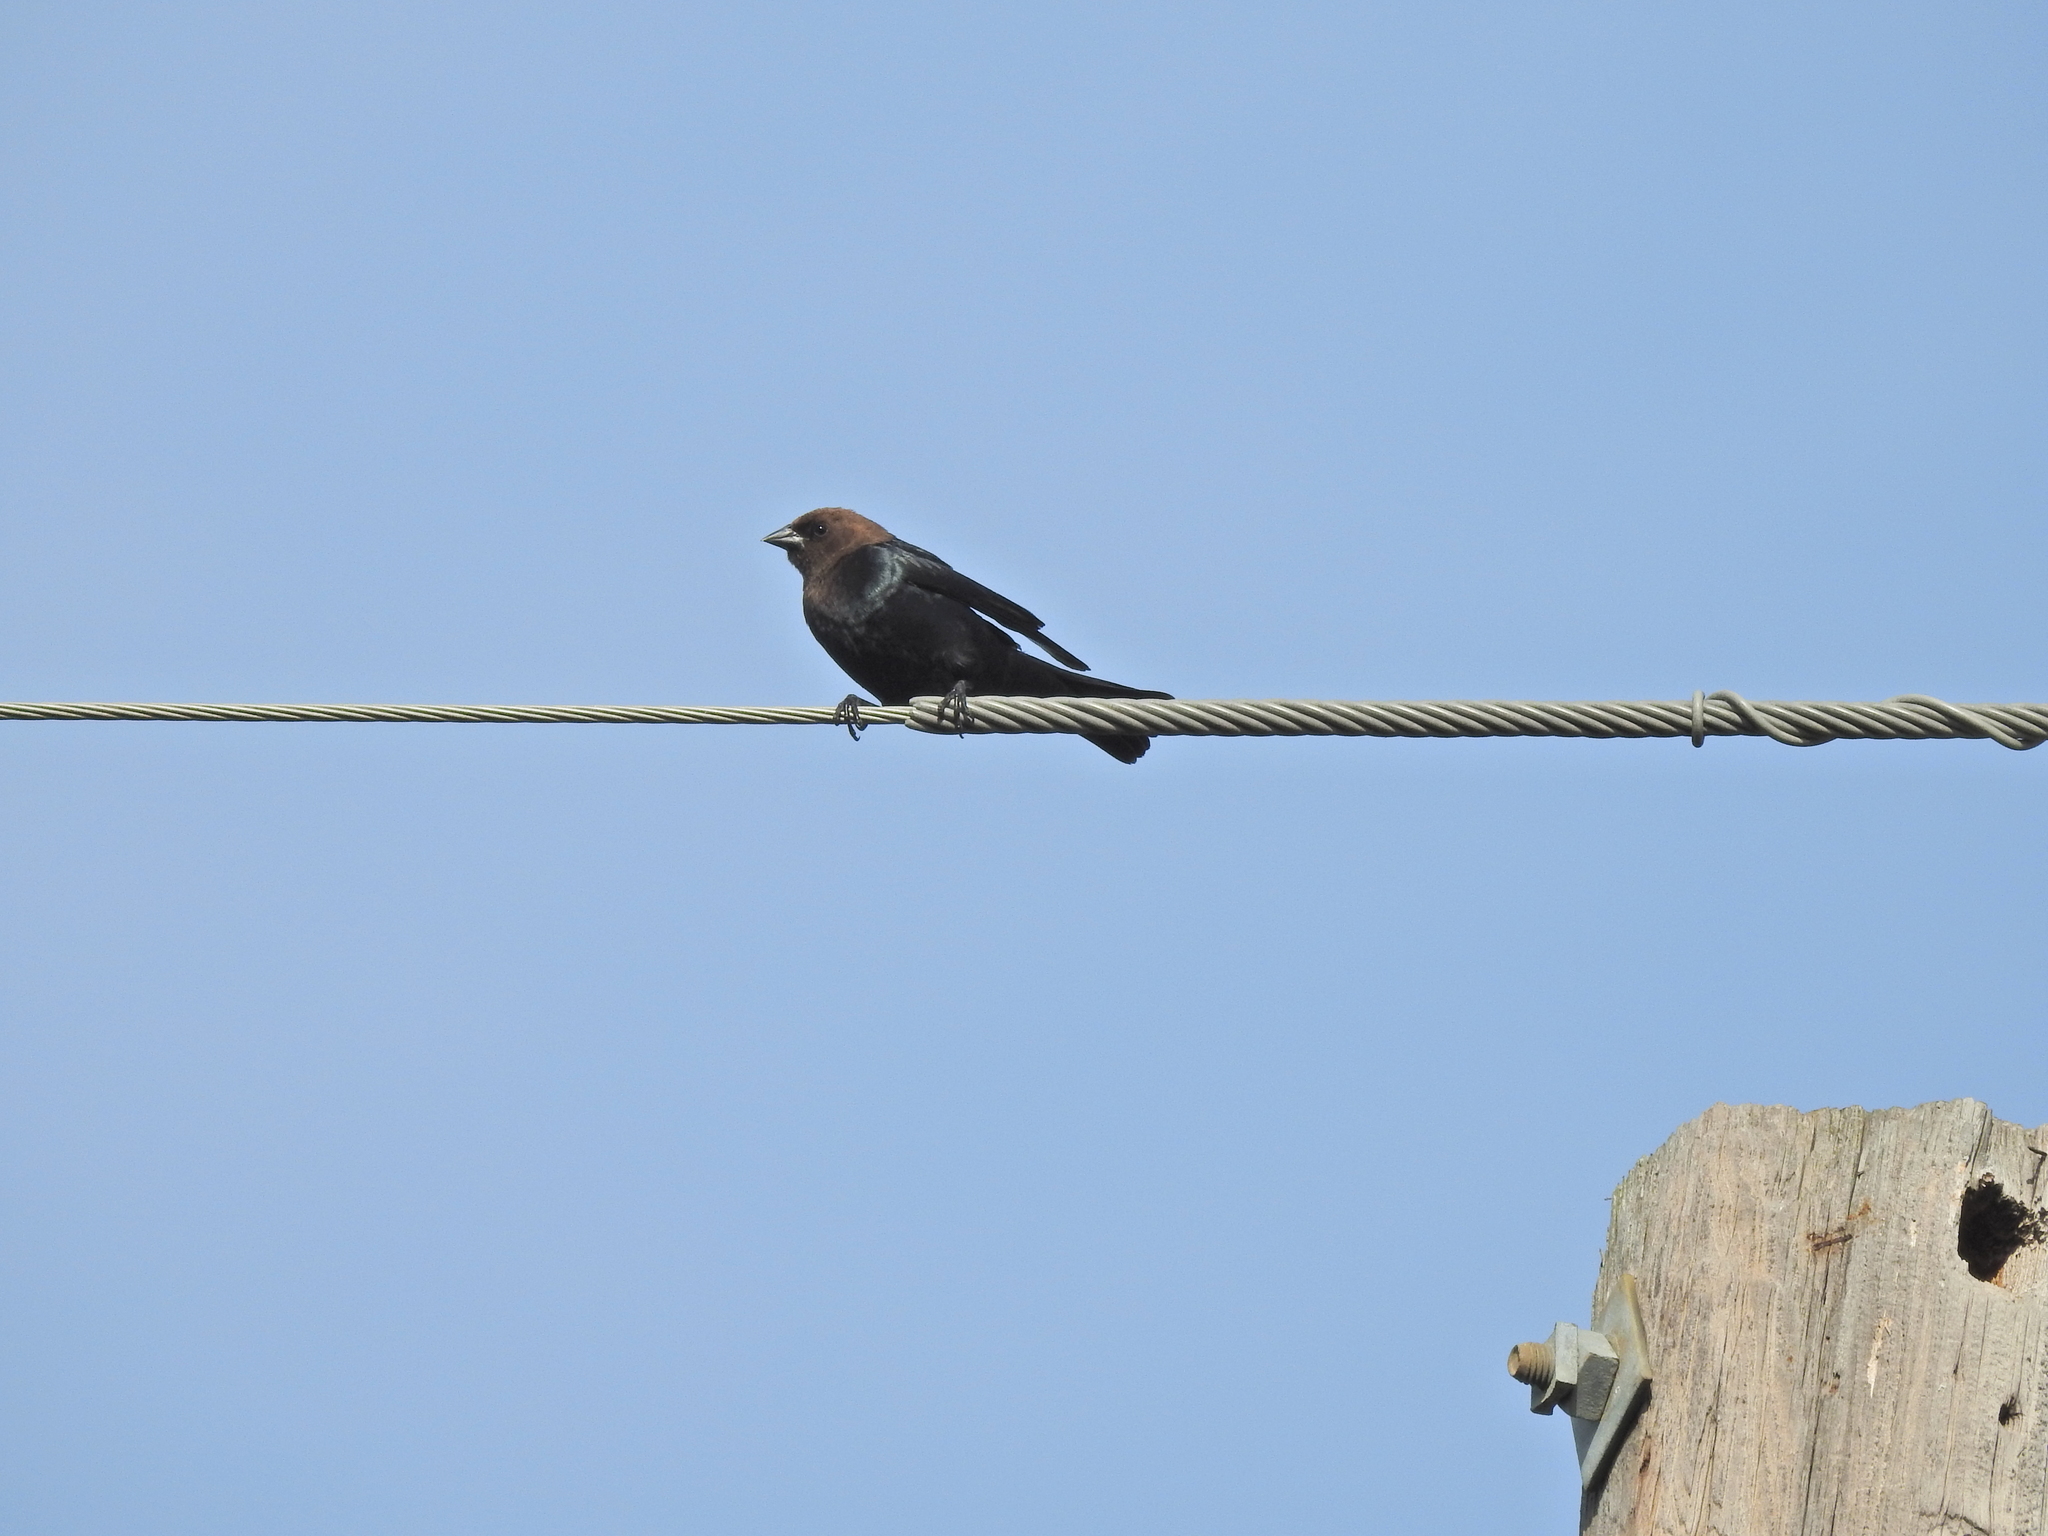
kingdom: Animalia
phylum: Chordata
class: Aves
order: Passeriformes
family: Icteridae
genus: Molothrus
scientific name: Molothrus ater
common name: Brown-headed cowbird
